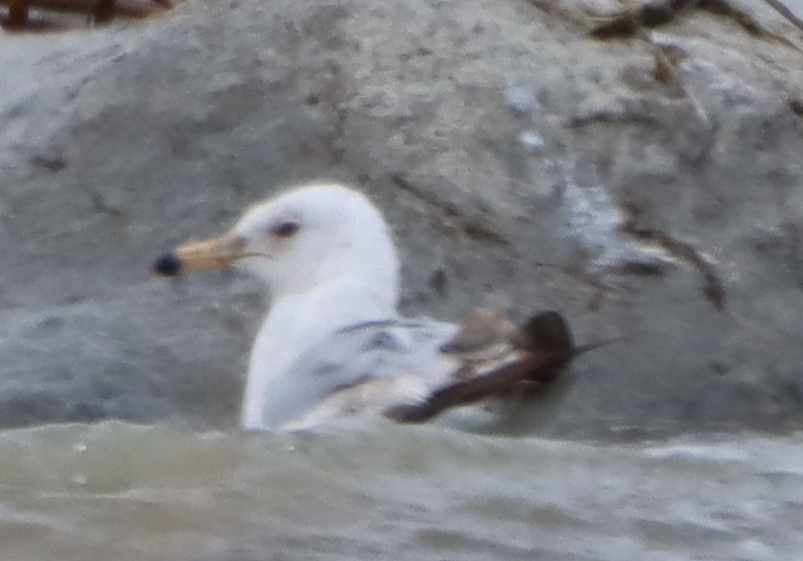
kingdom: Animalia
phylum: Chordata
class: Aves
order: Charadriiformes
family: Laridae
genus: Larus
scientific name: Larus delawarensis
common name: Ring-billed gull
